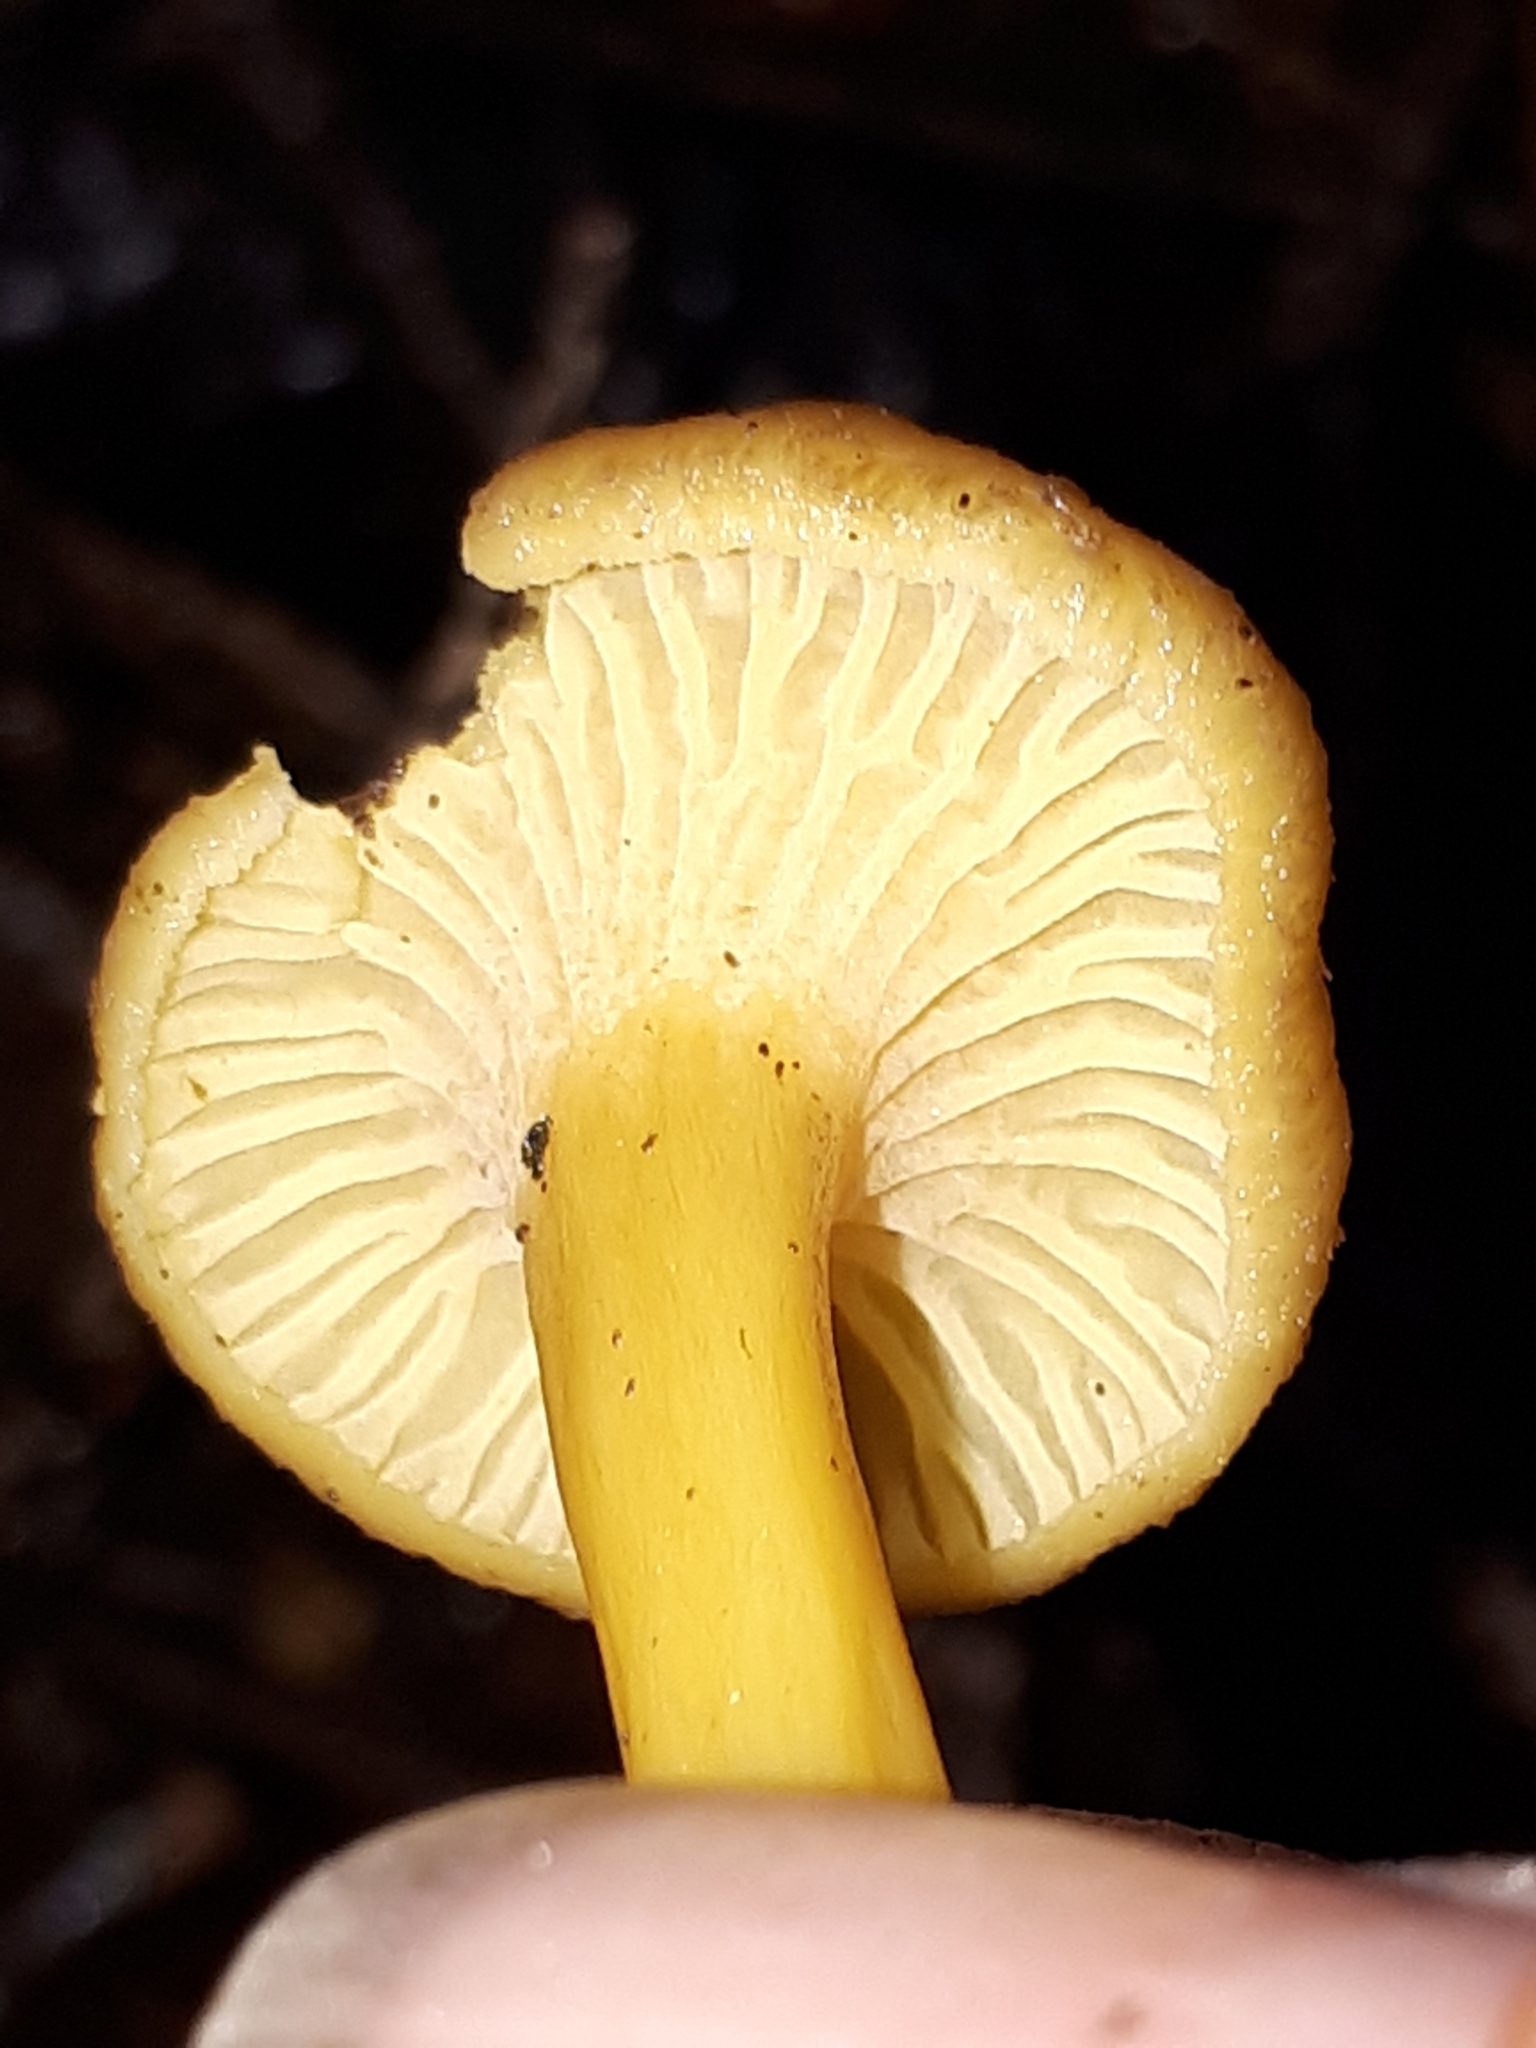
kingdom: Fungi
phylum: Basidiomycota
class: Agaricomycetes
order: Cantharellales
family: Hydnaceae
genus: Craterellus
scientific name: Craterellus tubaeformis
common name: Yellowfoot
